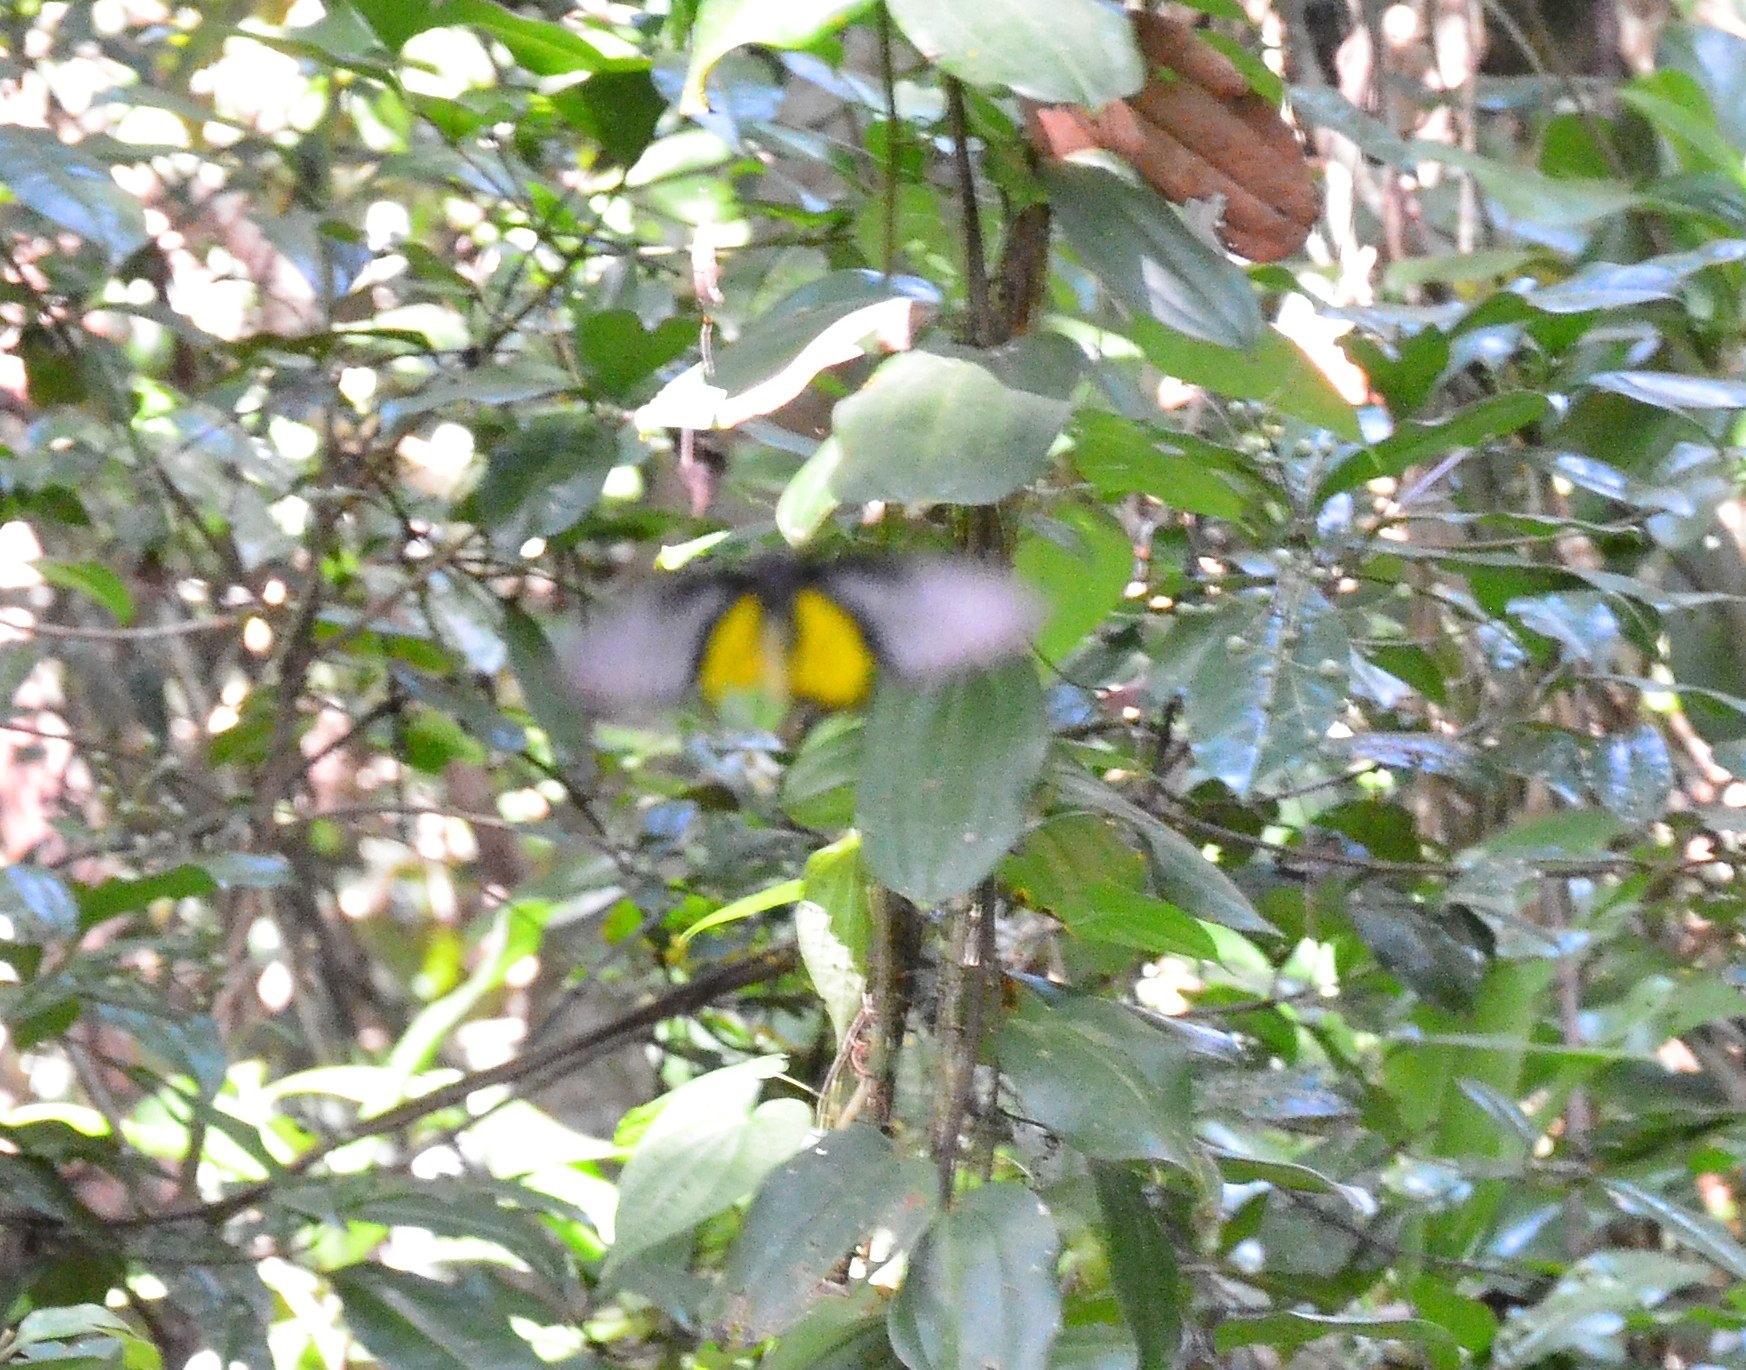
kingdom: Animalia
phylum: Arthropoda
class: Insecta
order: Lepidoptera
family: Papilionidae
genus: Troides
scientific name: Troides minos
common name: Malabar birdwing
